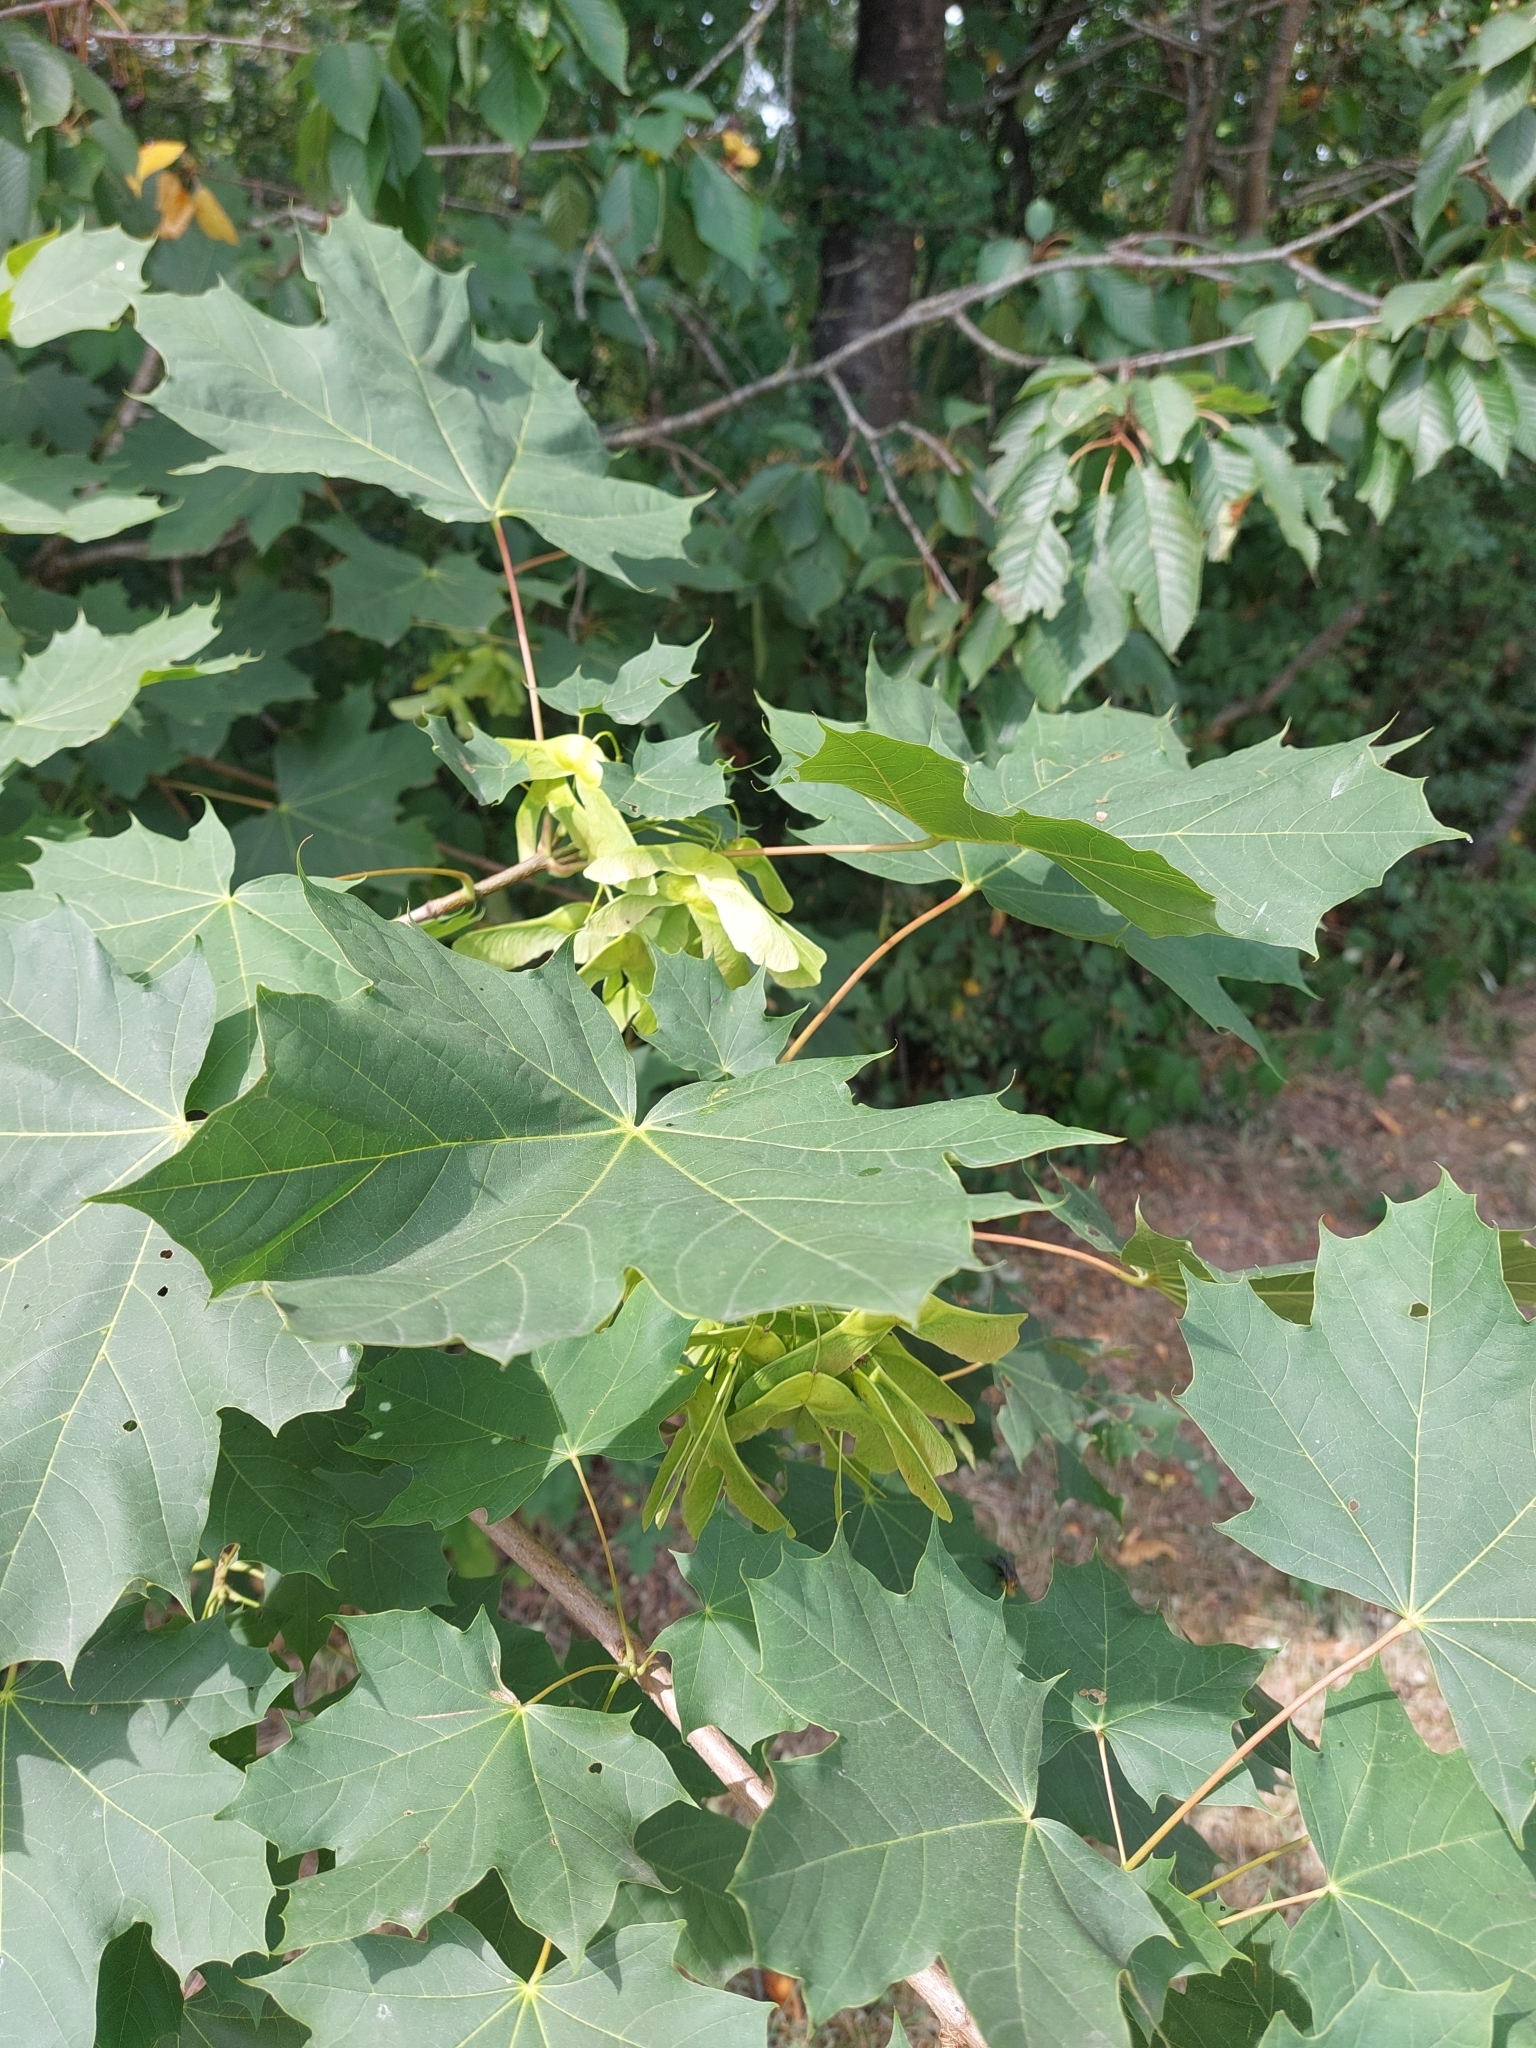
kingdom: Plantae
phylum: Tracheophyta
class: Magnoliopsida
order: Sapindales
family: Sapindaceae
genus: Acer
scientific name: Acer platanoides
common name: Norway maple
